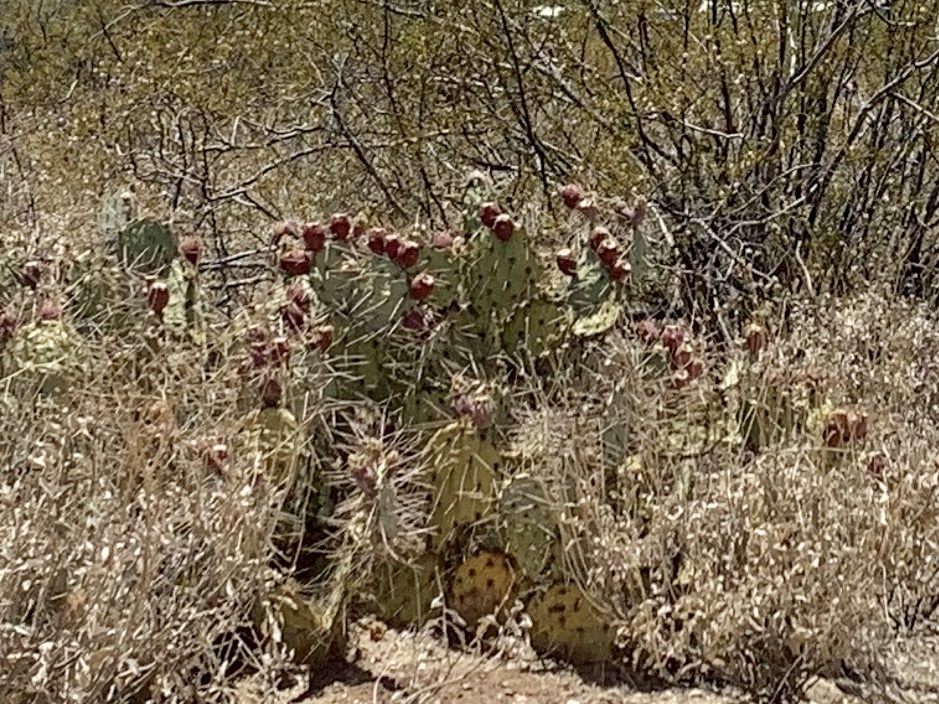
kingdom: Plantae
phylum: Tracheophyta
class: Magnoliopsida
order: Caryophyllales
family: Cactaceae
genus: Opuntia
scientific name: Opuntia engelmannii
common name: Cactus-apple
